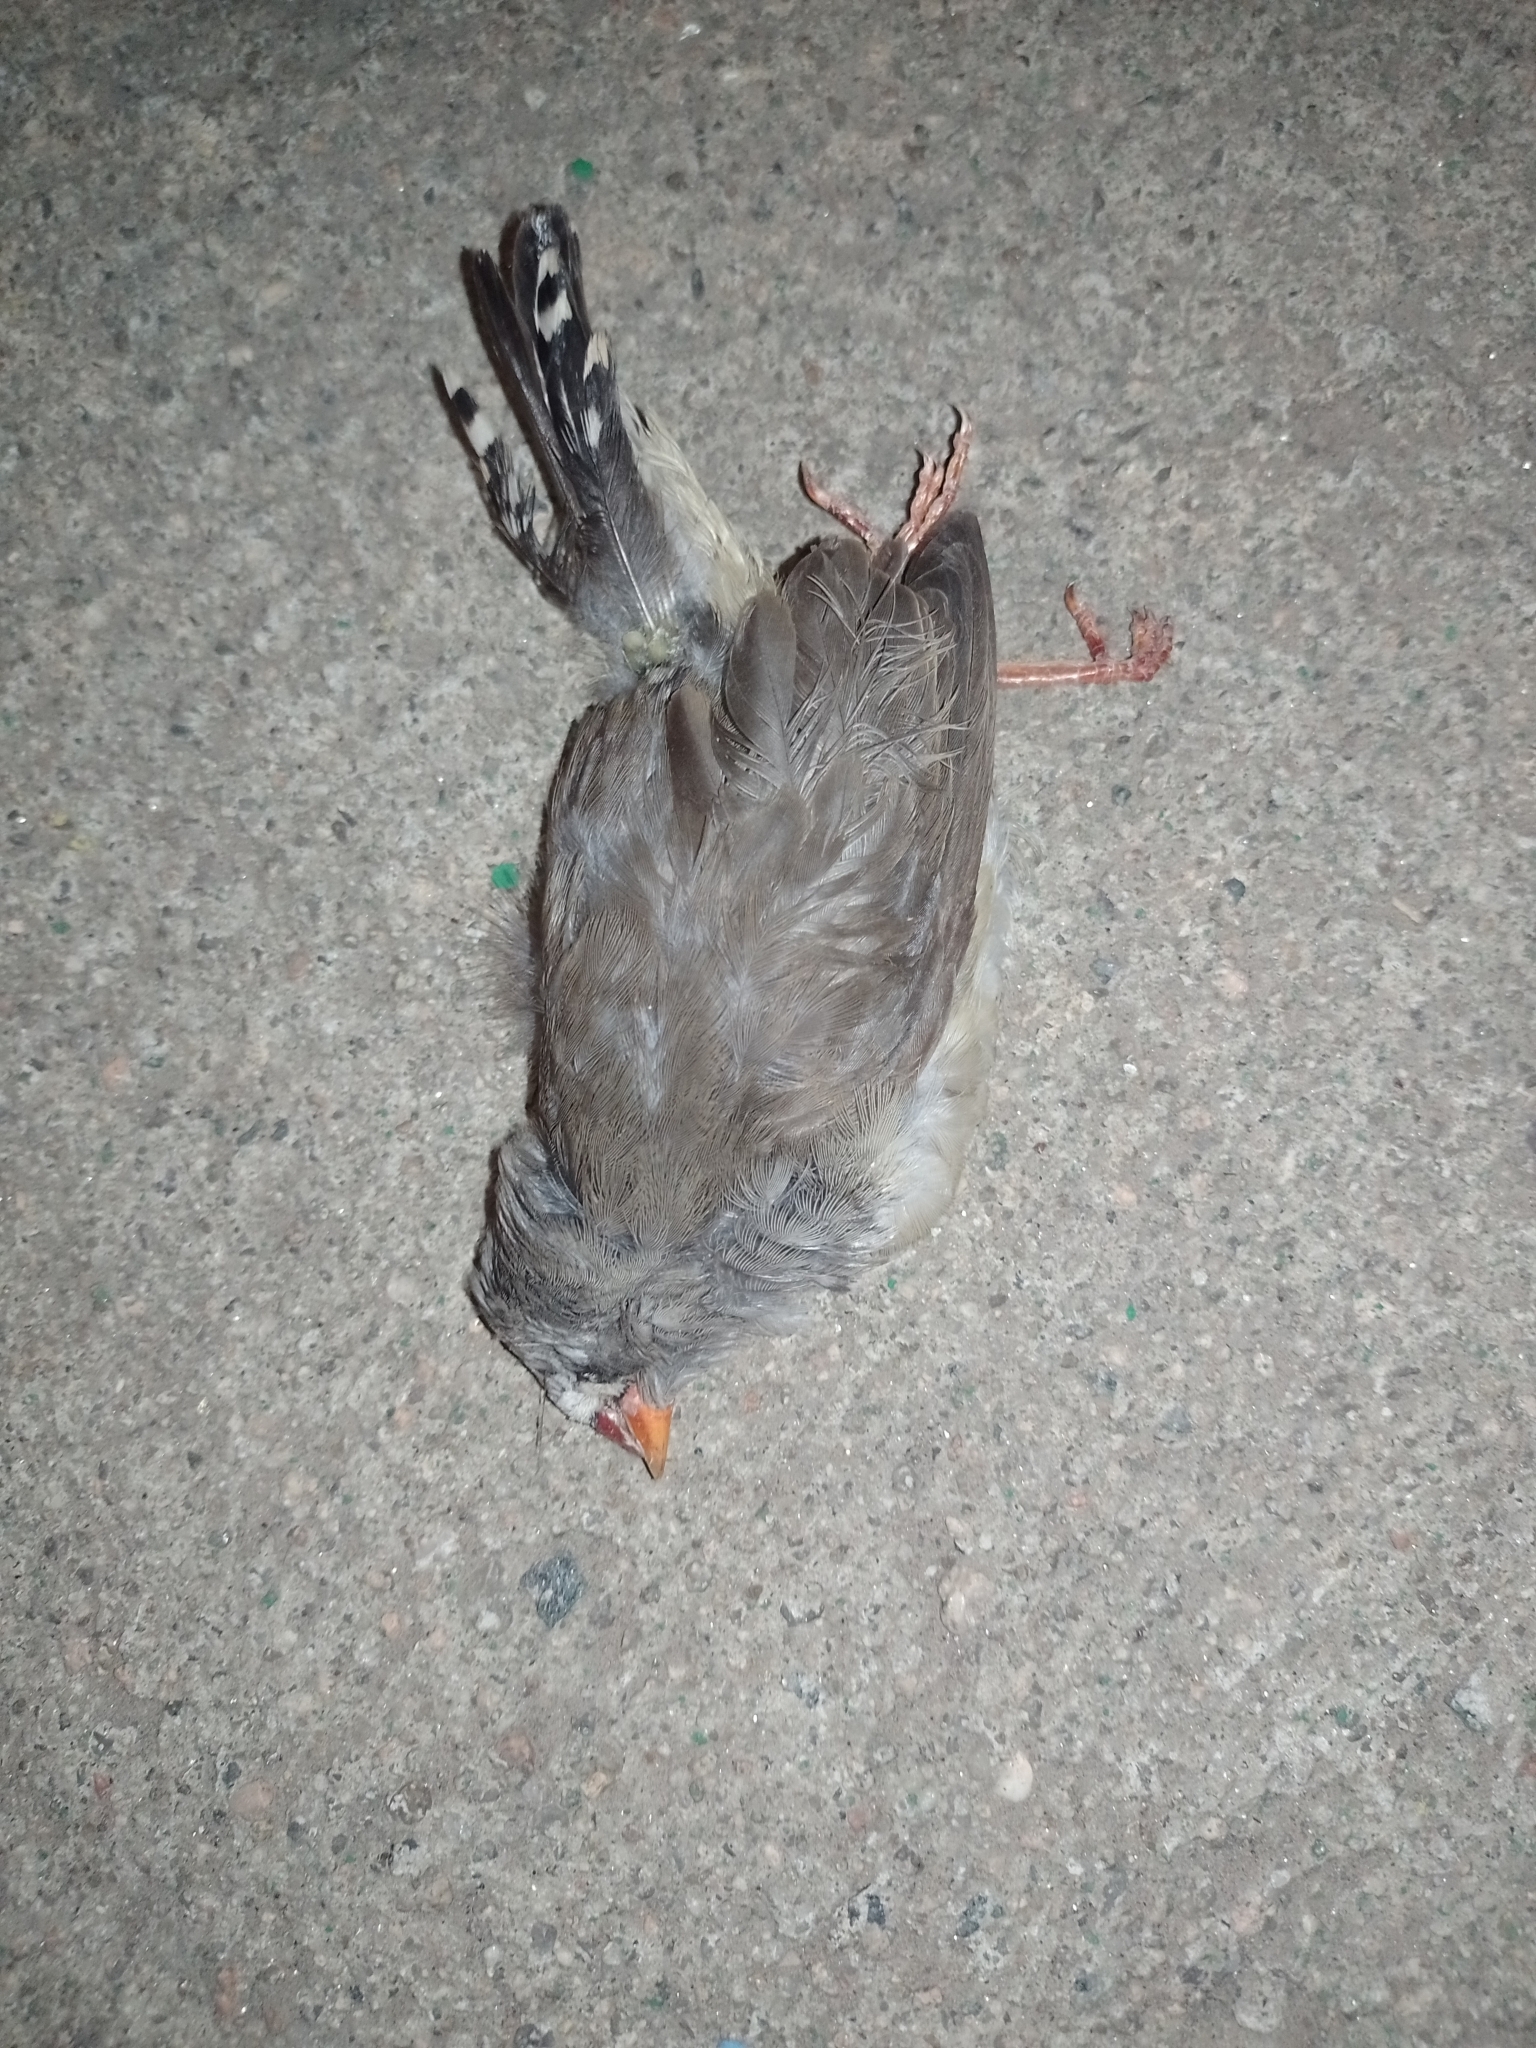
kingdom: Animalia
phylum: Chordata
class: Aves
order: Passeriformes
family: Estrildidae
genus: Taeniopygia
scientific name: Taeniopygia guttata
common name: Zebra finch
